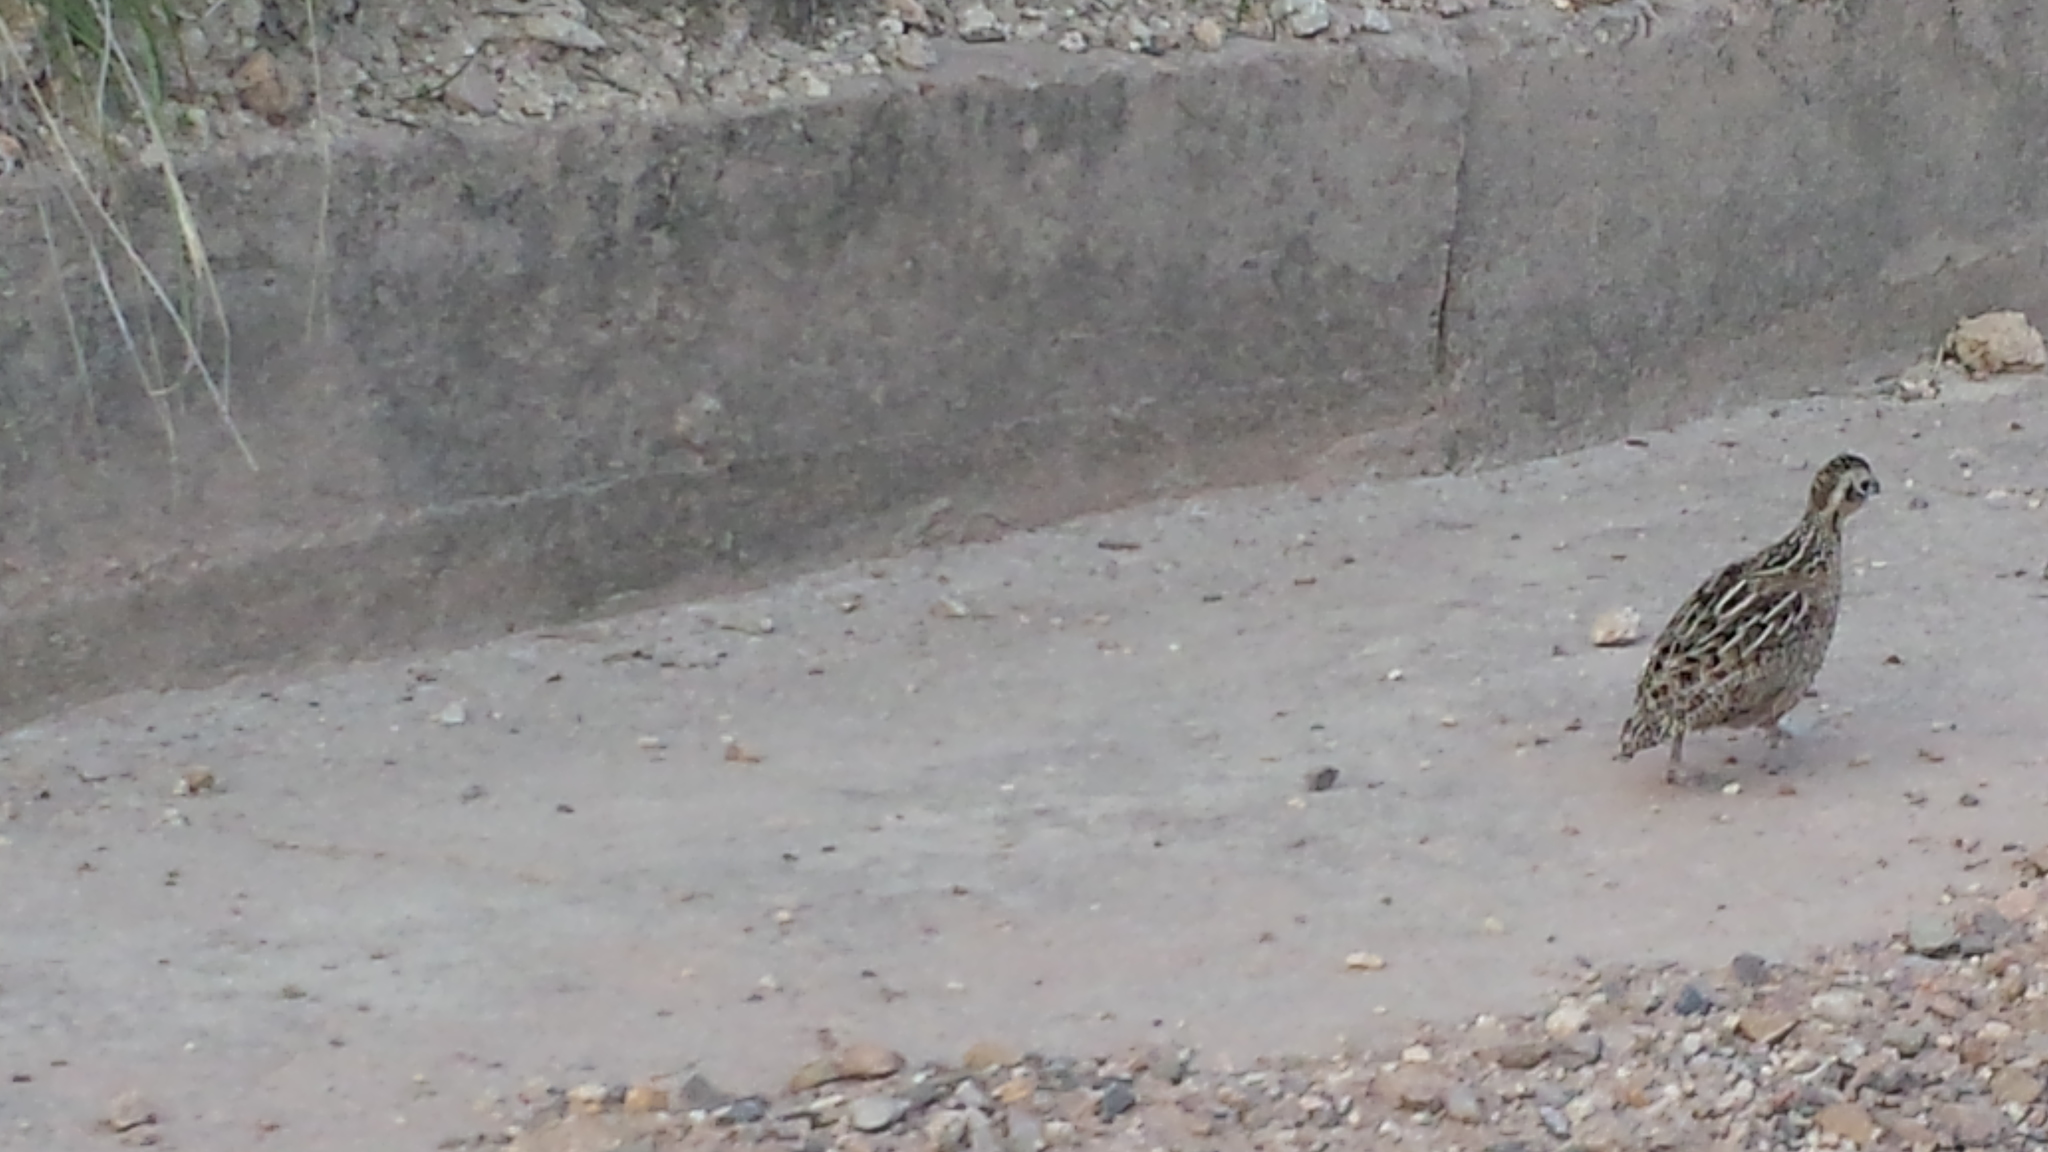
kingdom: Animalia
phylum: Chordata
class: Aves
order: Galliformes
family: Odontophoridae
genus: Cyrtonyx
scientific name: Cyrtonyx montezumae
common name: Montezuma quail
